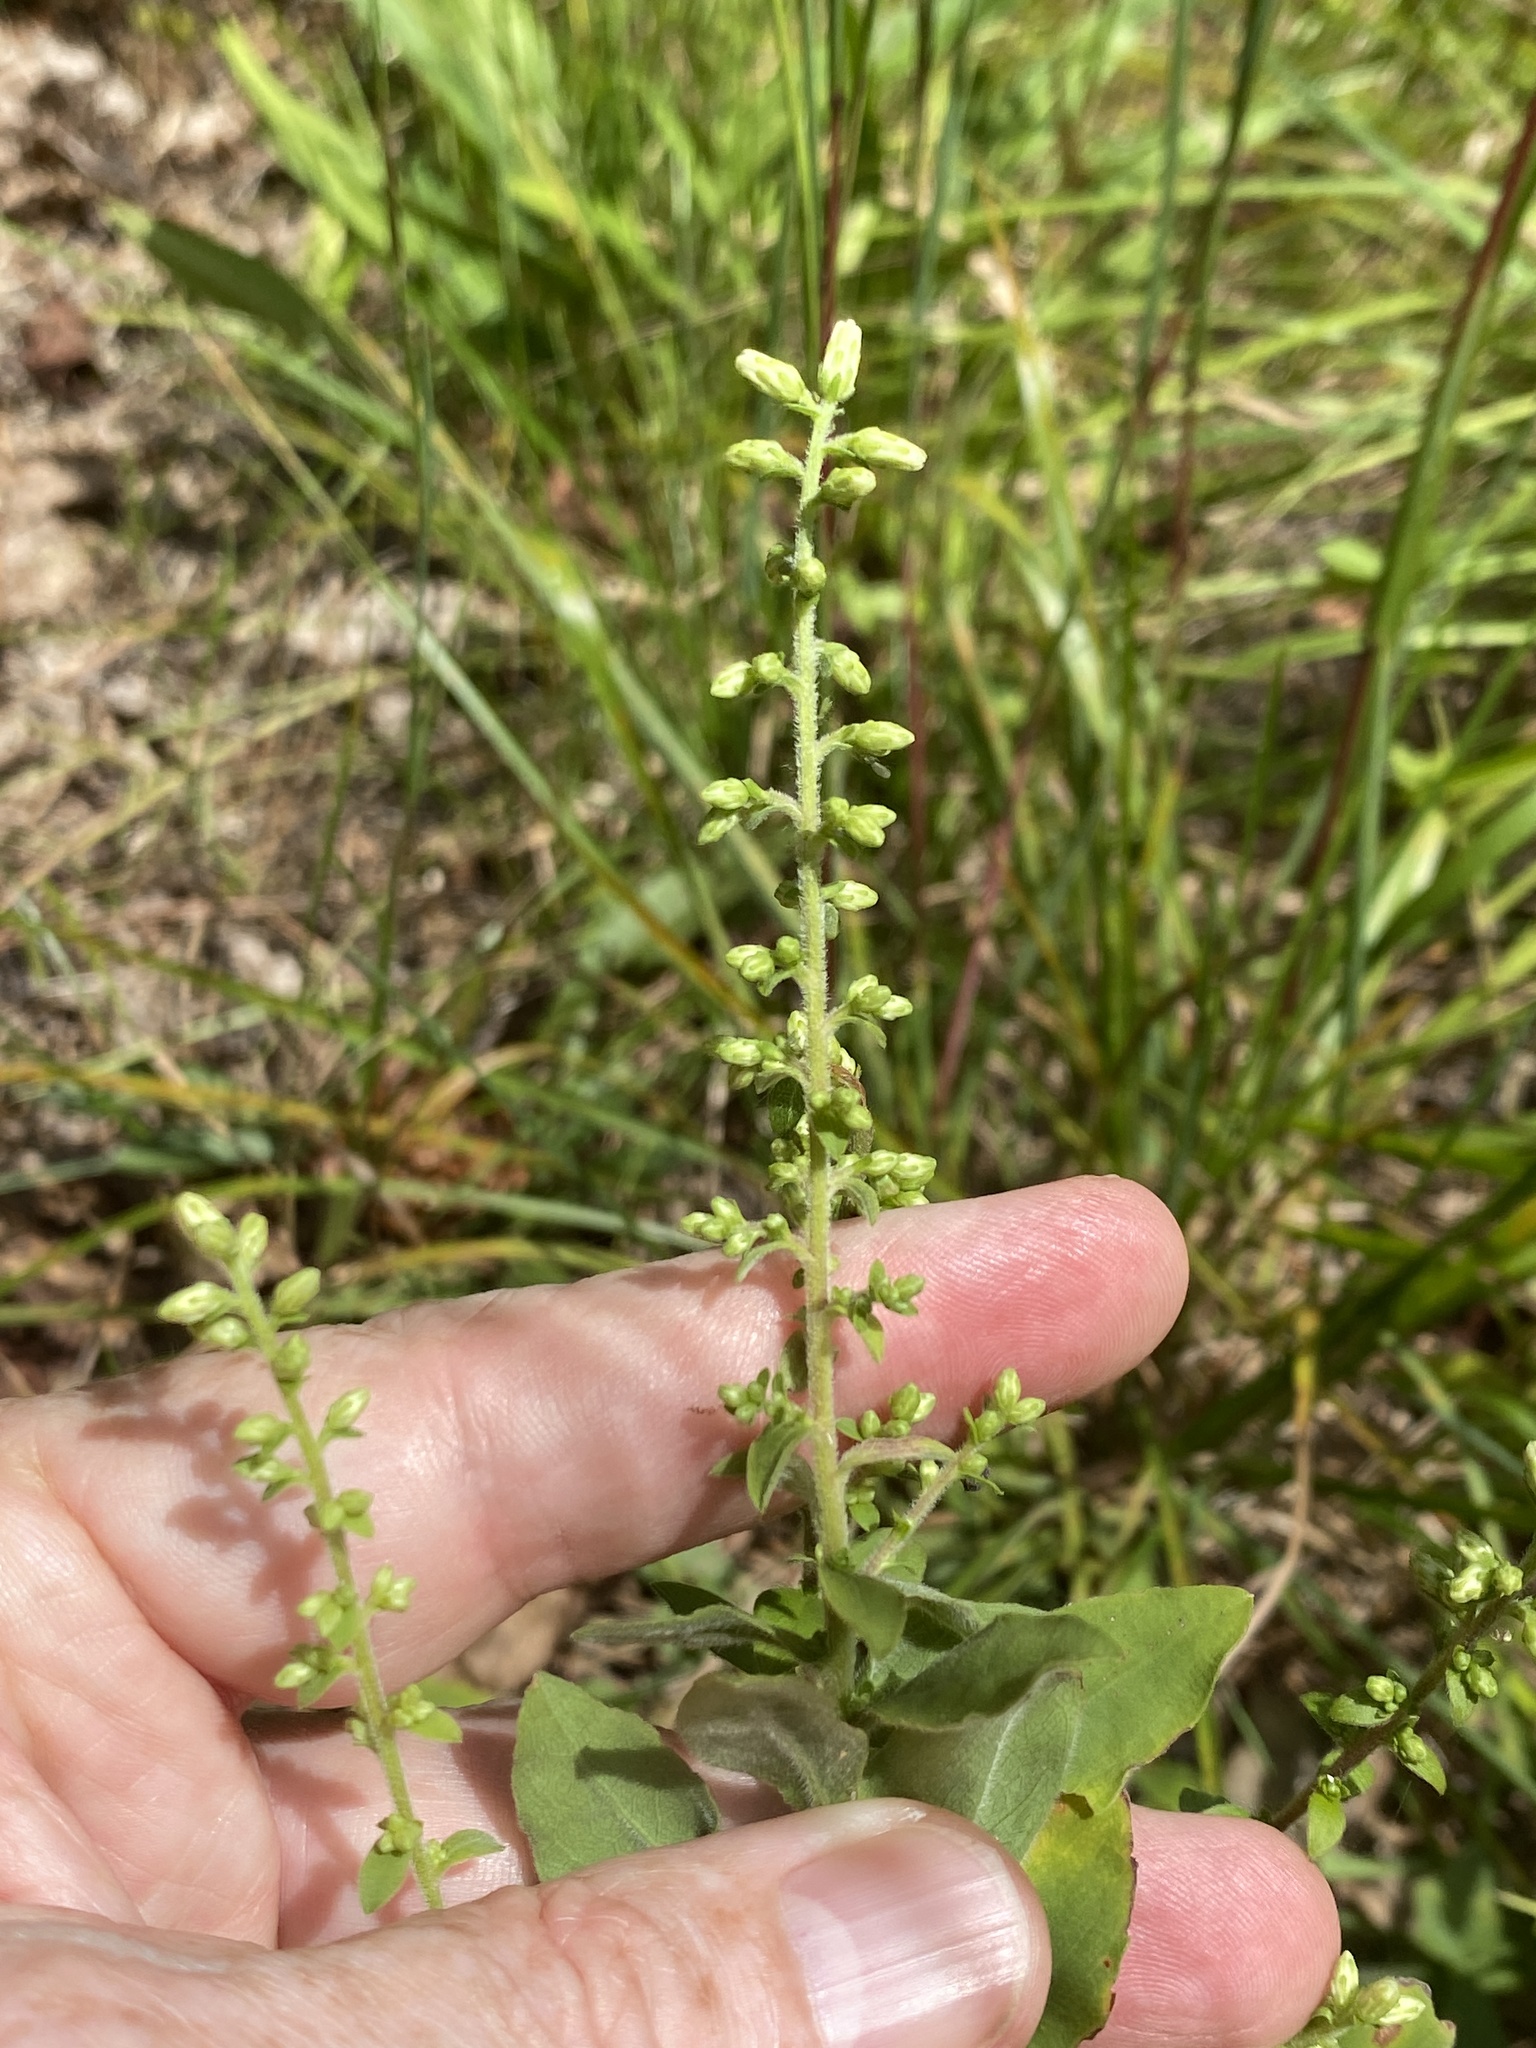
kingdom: Plantae
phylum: Tracheophyta
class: Magnoliopsida
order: Asterales
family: Asteraceae
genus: Solidago
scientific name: Solidago bicolor
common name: Silverrod
